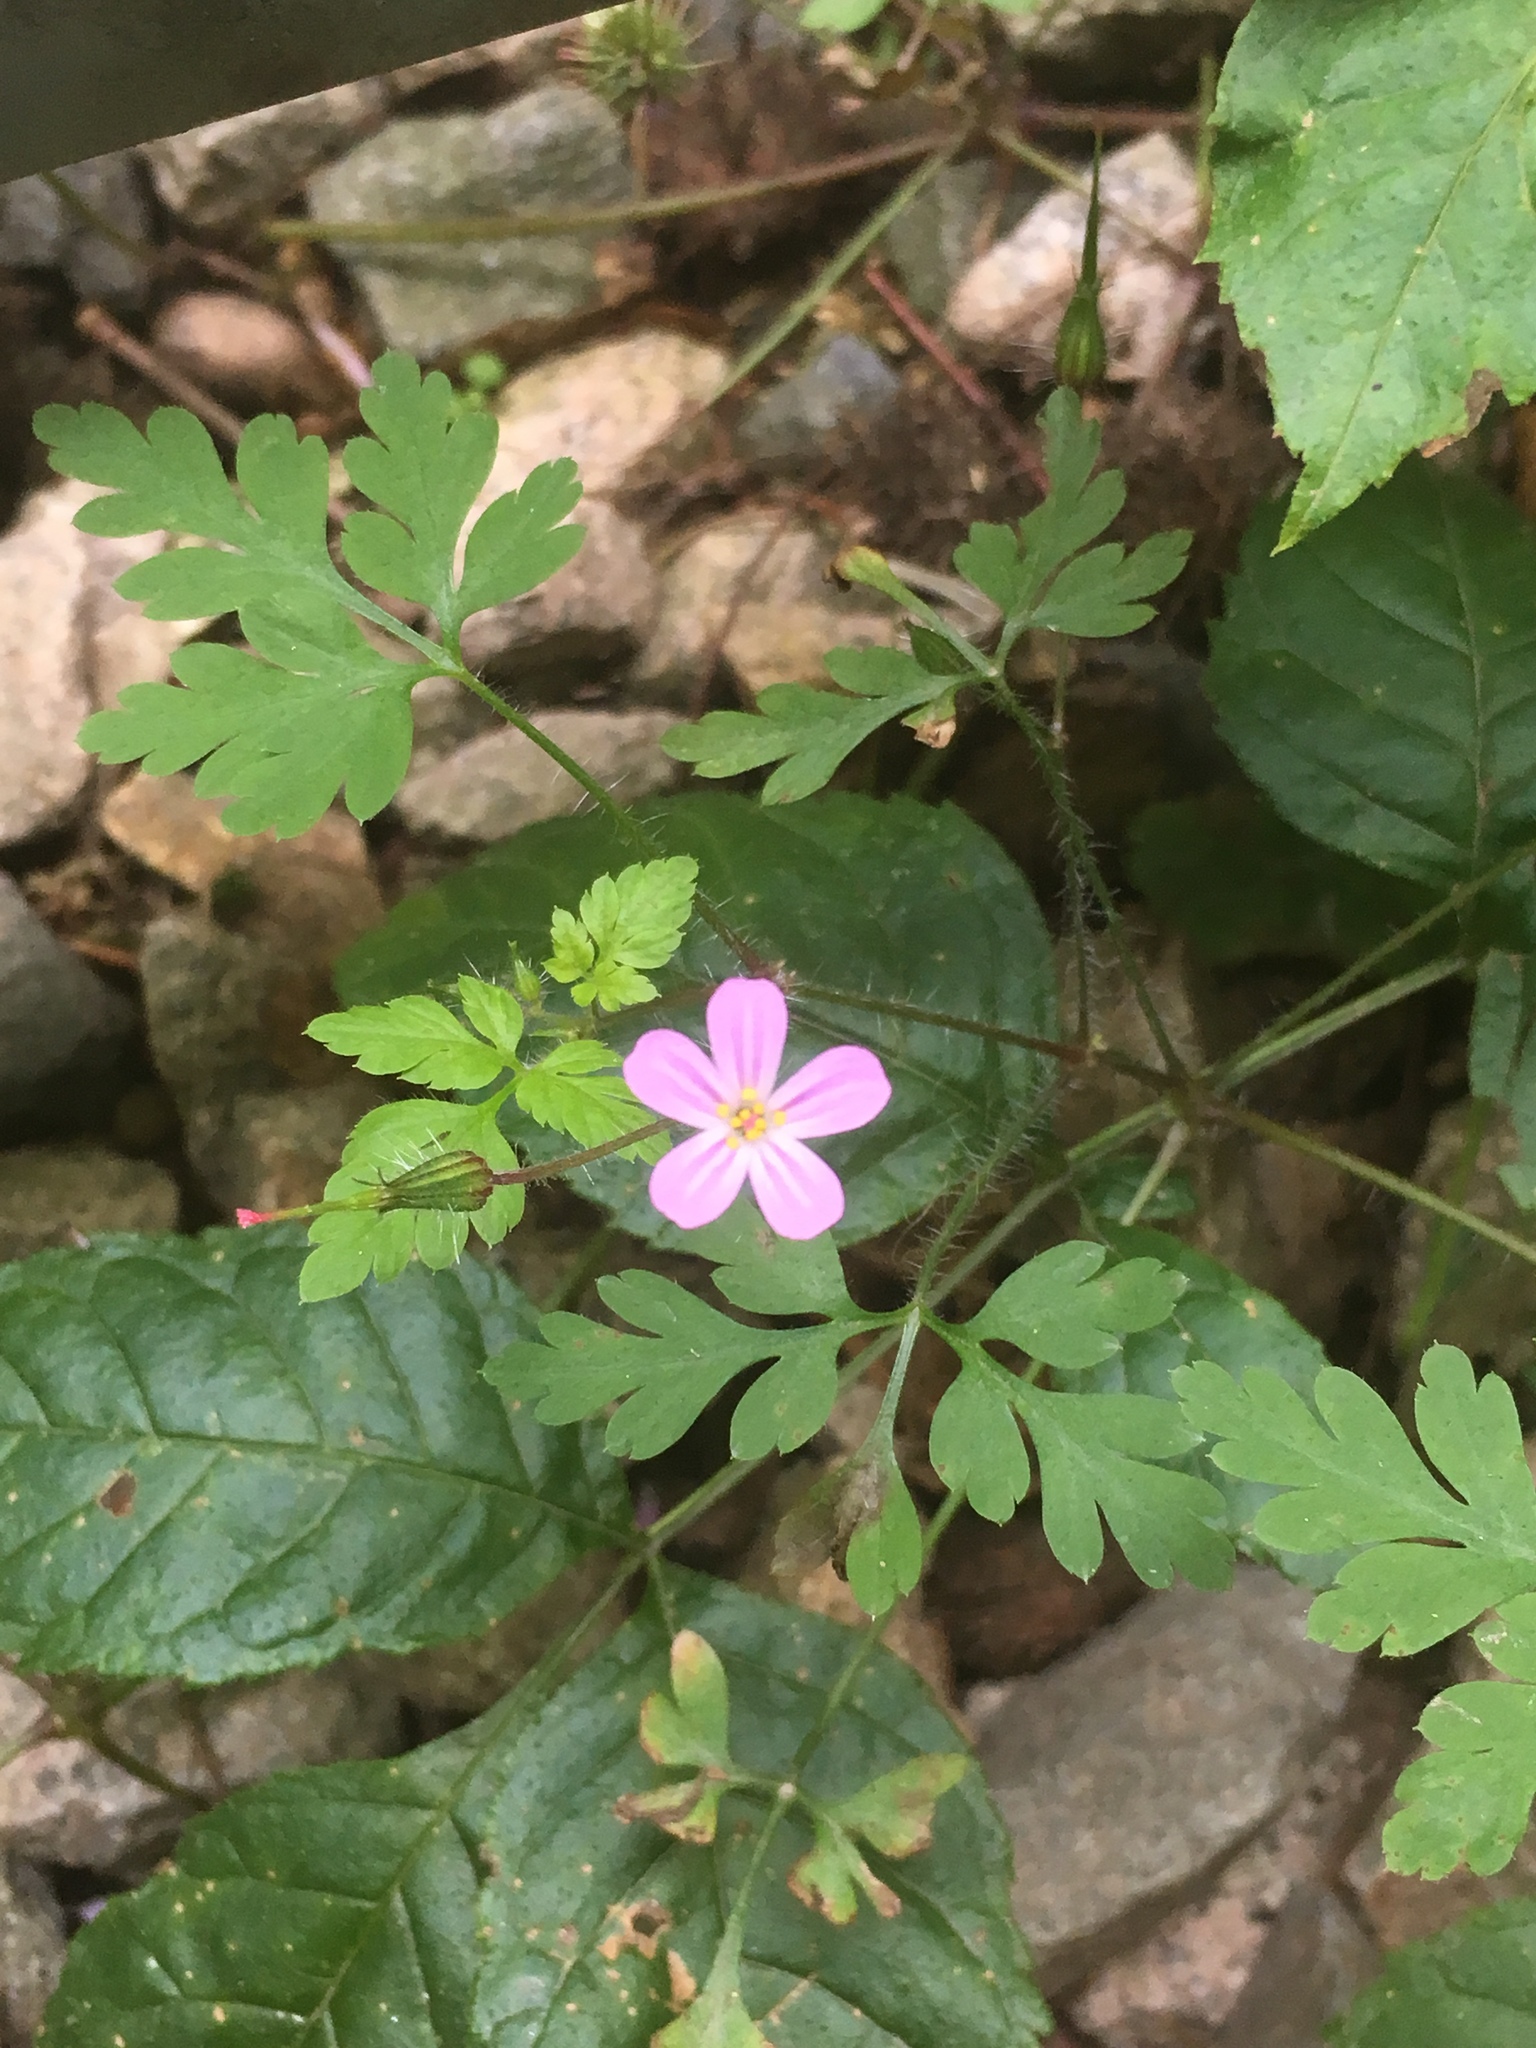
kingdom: Plantae
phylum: Tracheophyta
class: Magnoliopsida
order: Geraniales
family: Geraniaceae
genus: Geranium
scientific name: Geranium robertianum
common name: Herb-robert
